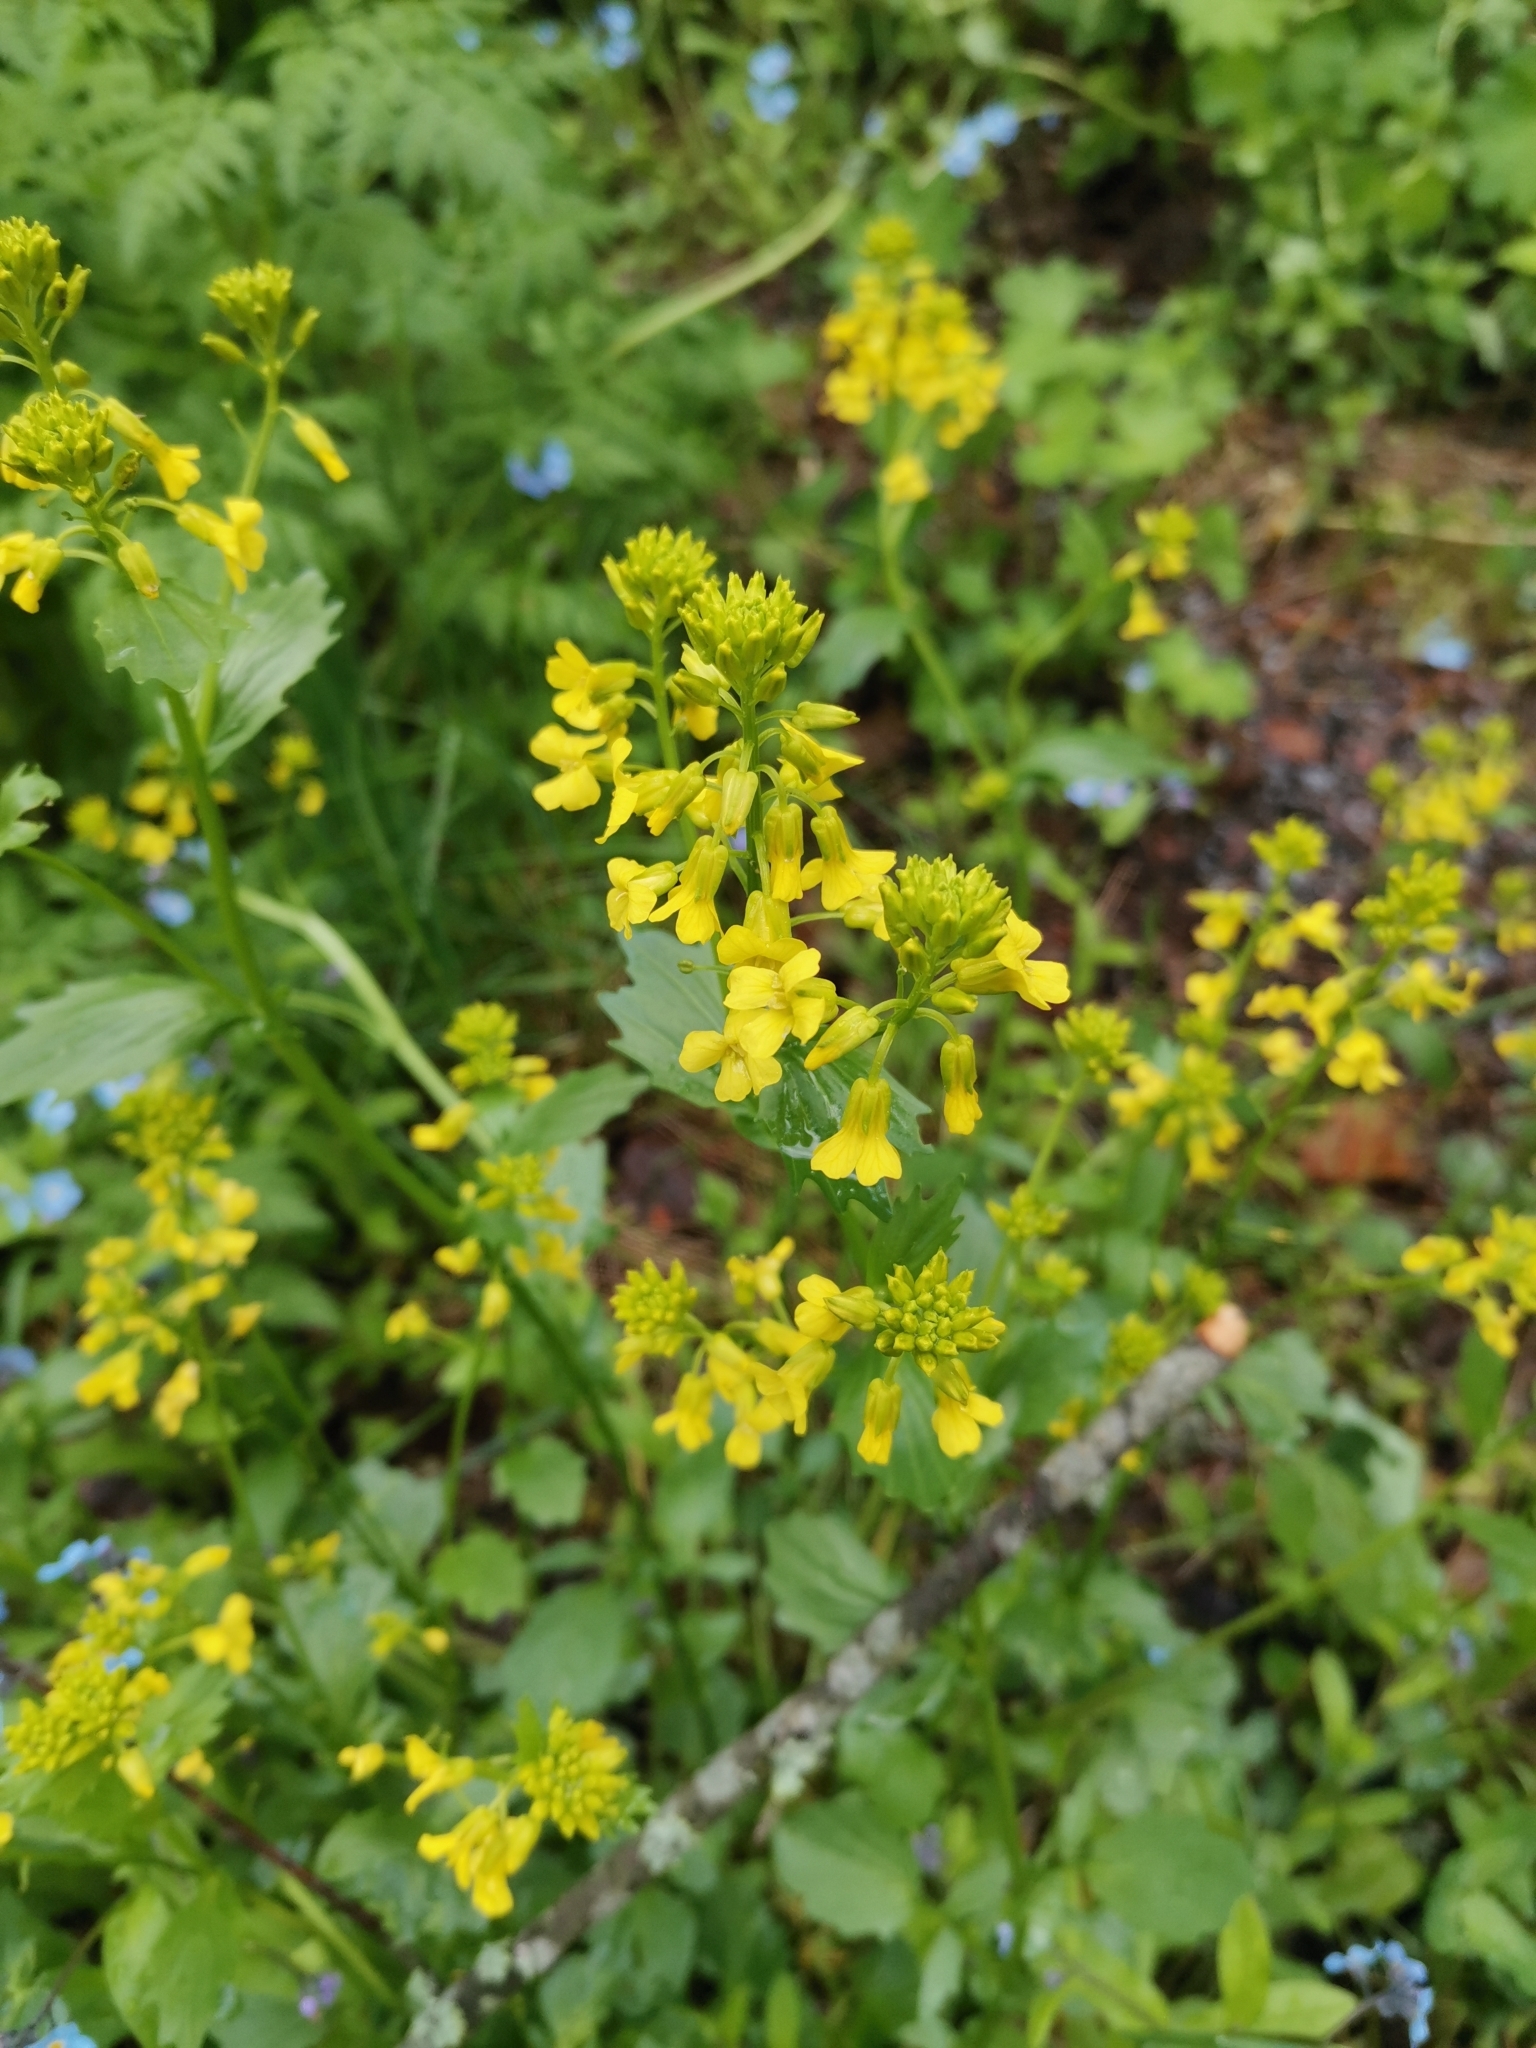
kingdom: Plantae
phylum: Tracheophyta
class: Magnoliopsida
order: Brassicales
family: Brassicaceae
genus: Barbarea
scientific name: Barbarea vulgaris
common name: Cressy-greens
